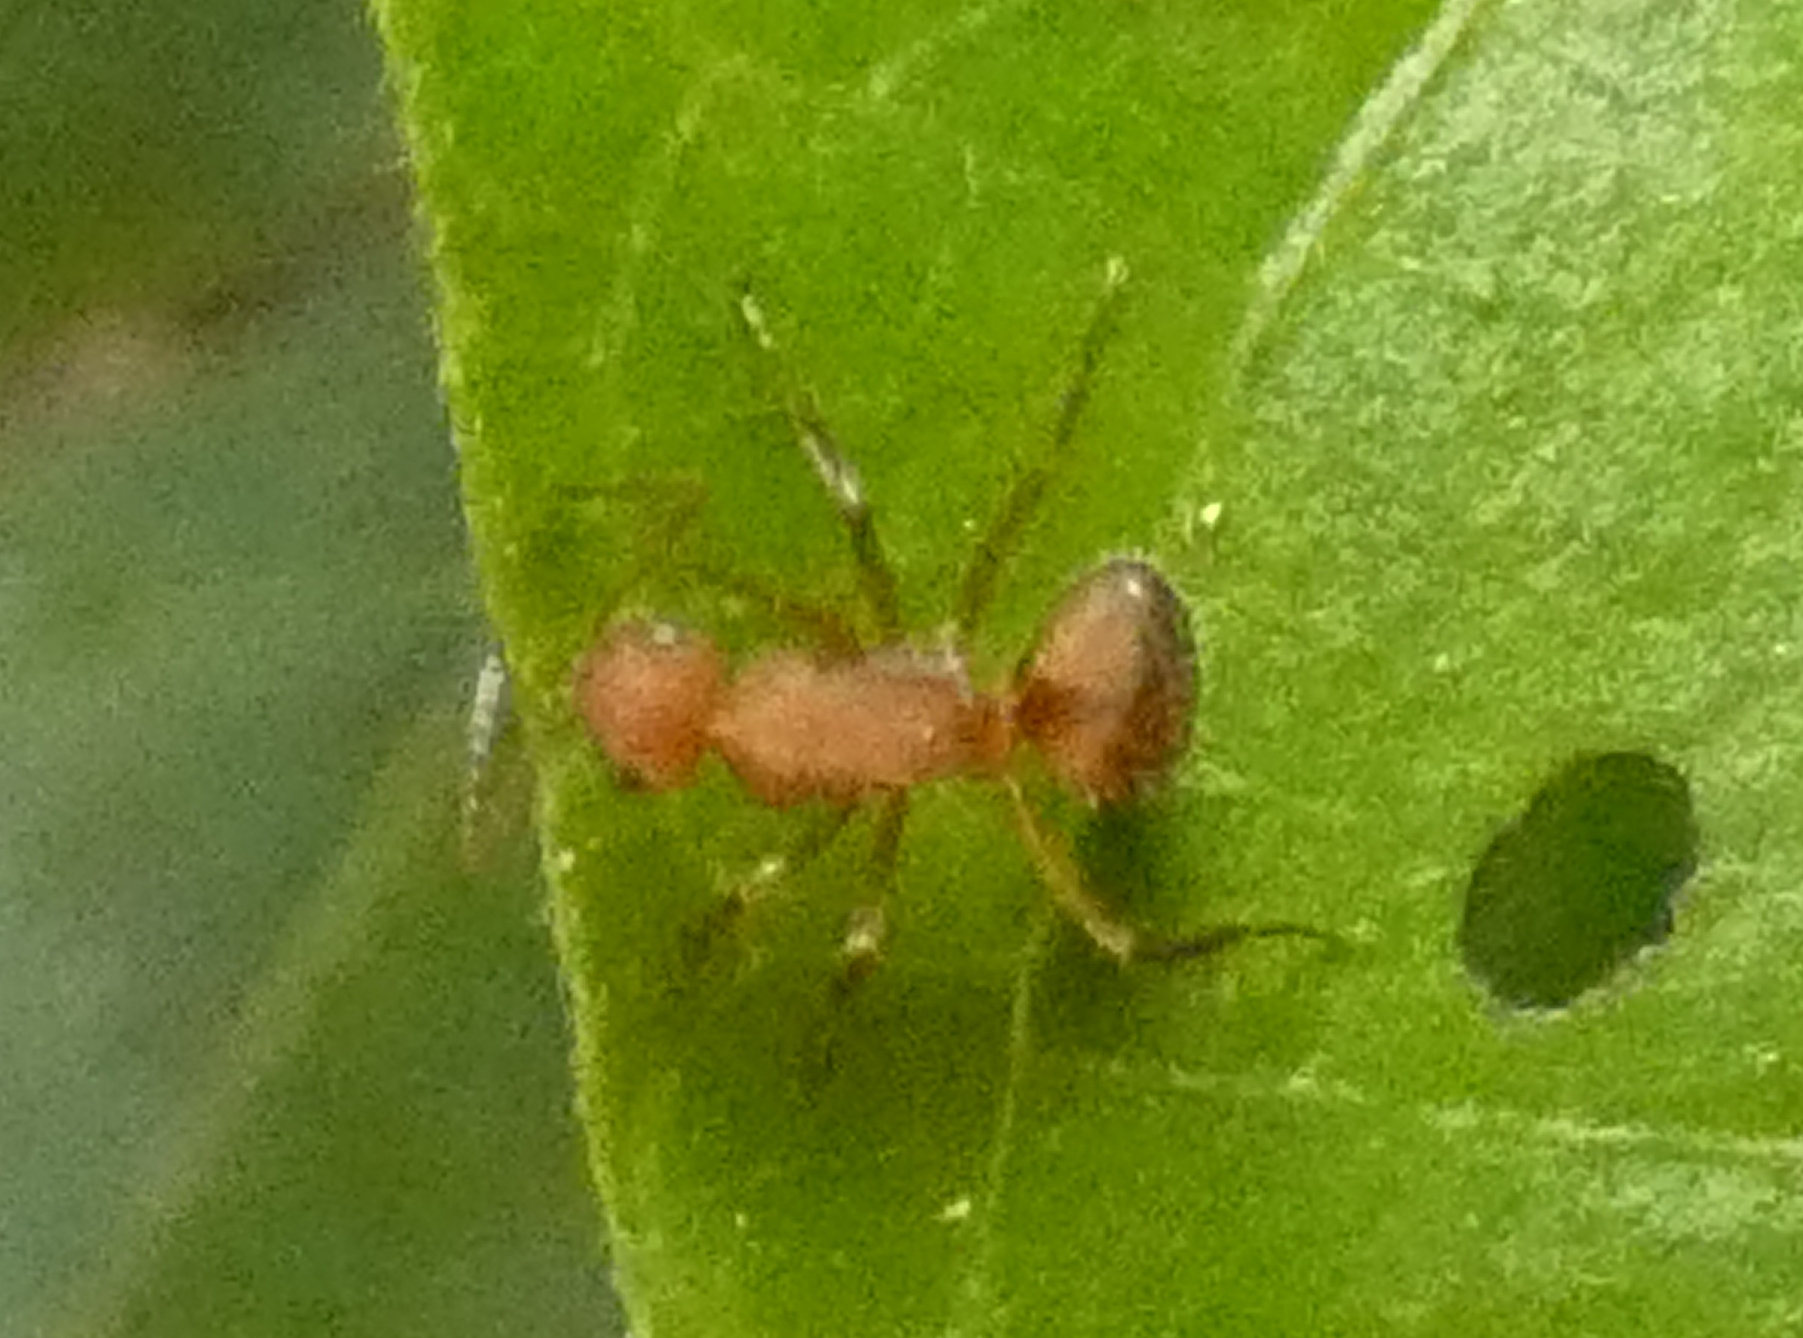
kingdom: Animalia
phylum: Arthropoda
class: Insecta
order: Hymenoptera
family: Formicidae
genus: Camponotus
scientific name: Camponotus rectangularis
